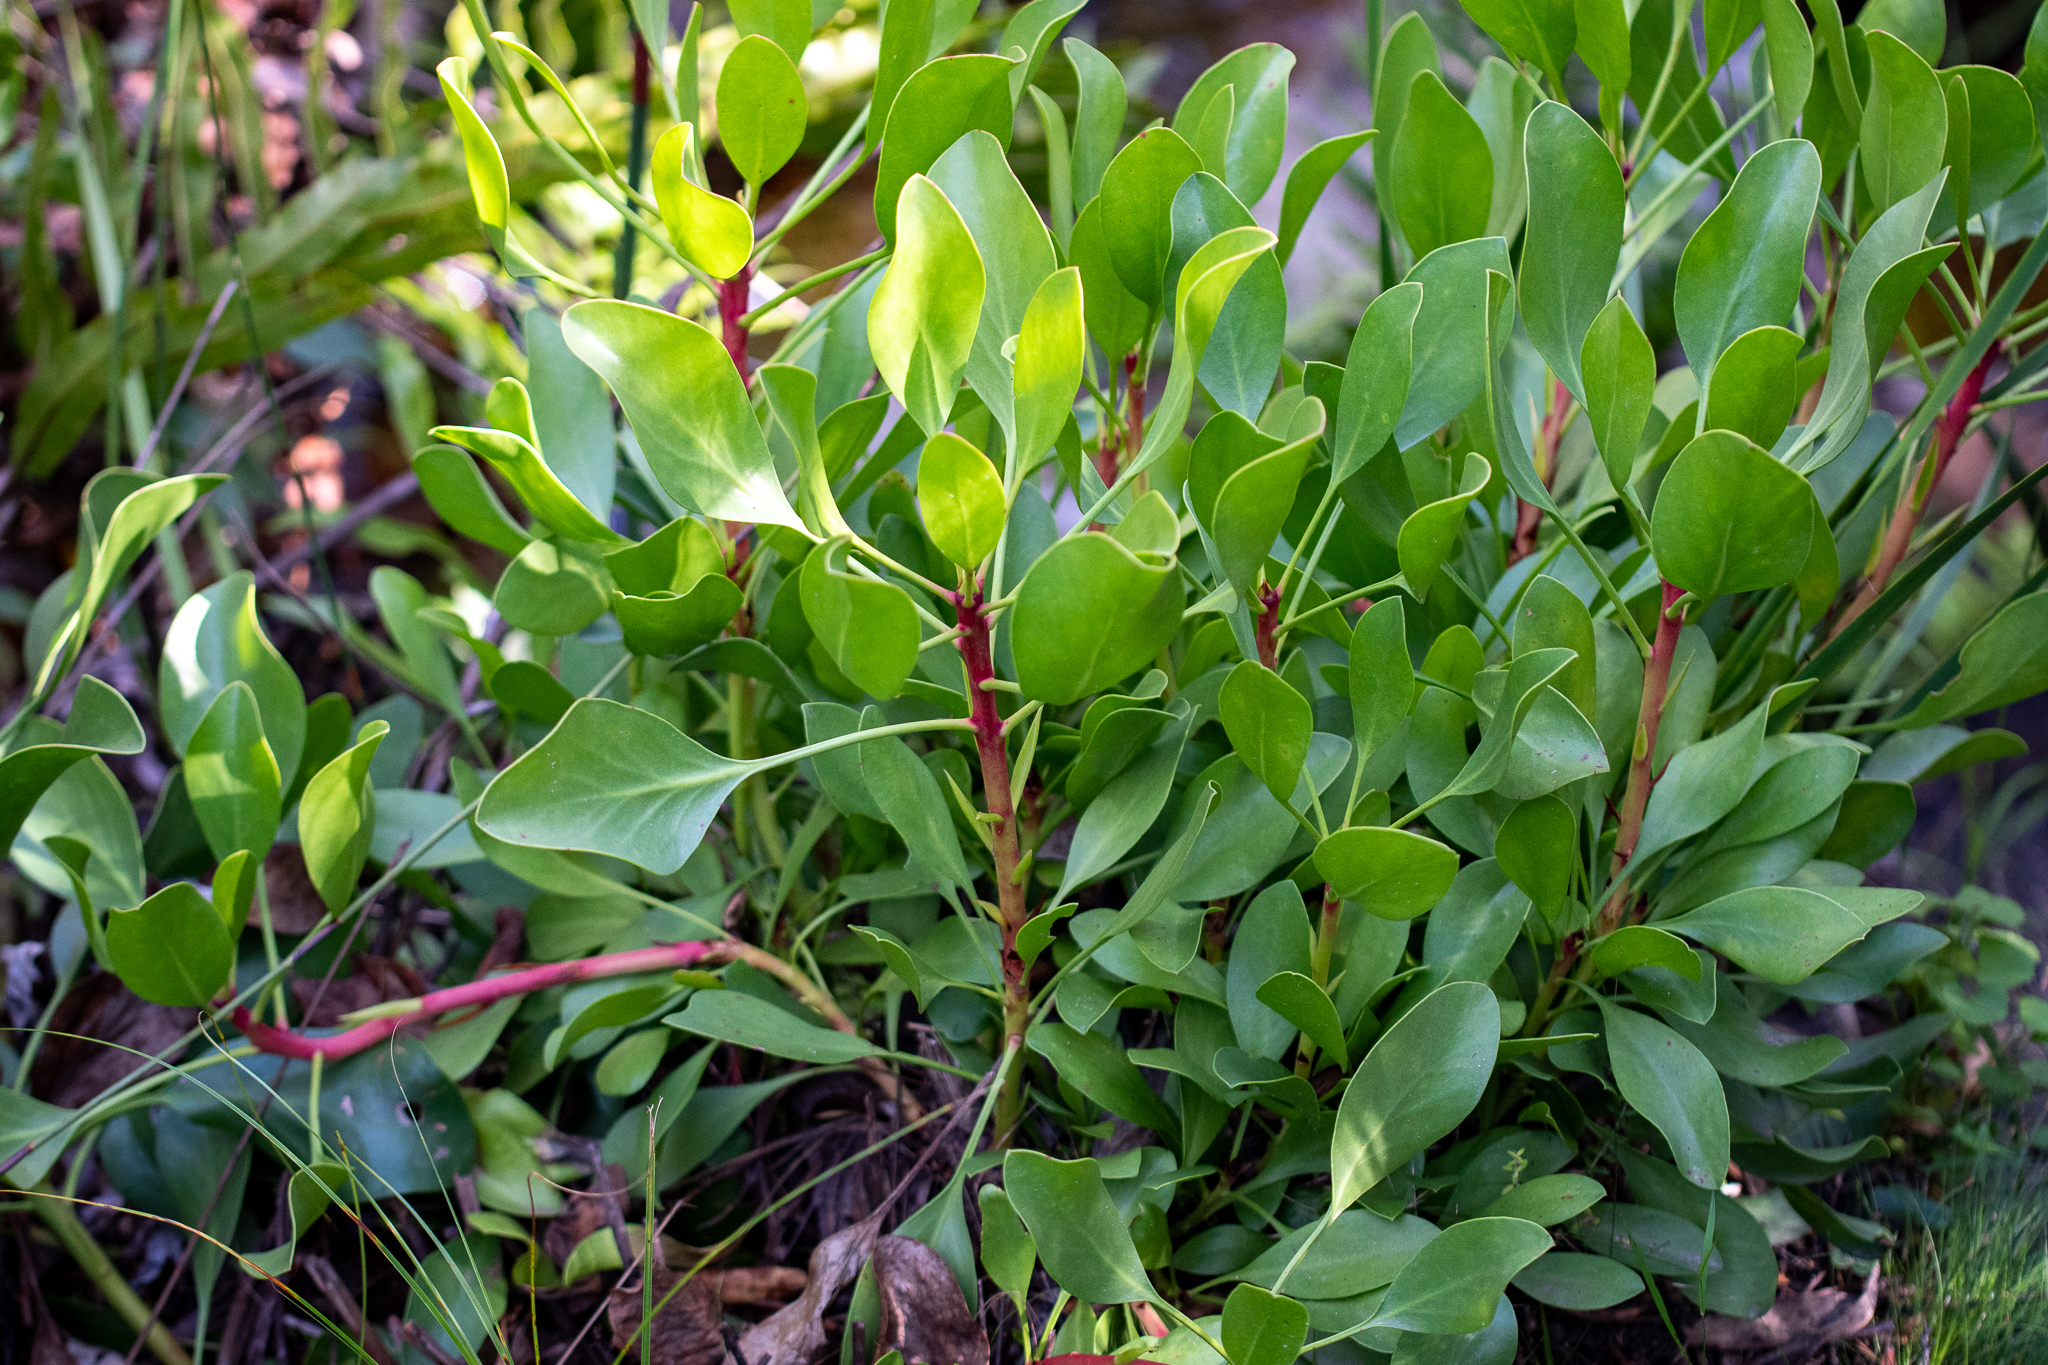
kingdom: Plantae
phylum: Tracheophyta
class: Magnoliopsida
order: Proteales
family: Proteaceae
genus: Protea
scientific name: Protea cynaroides
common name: King protea
